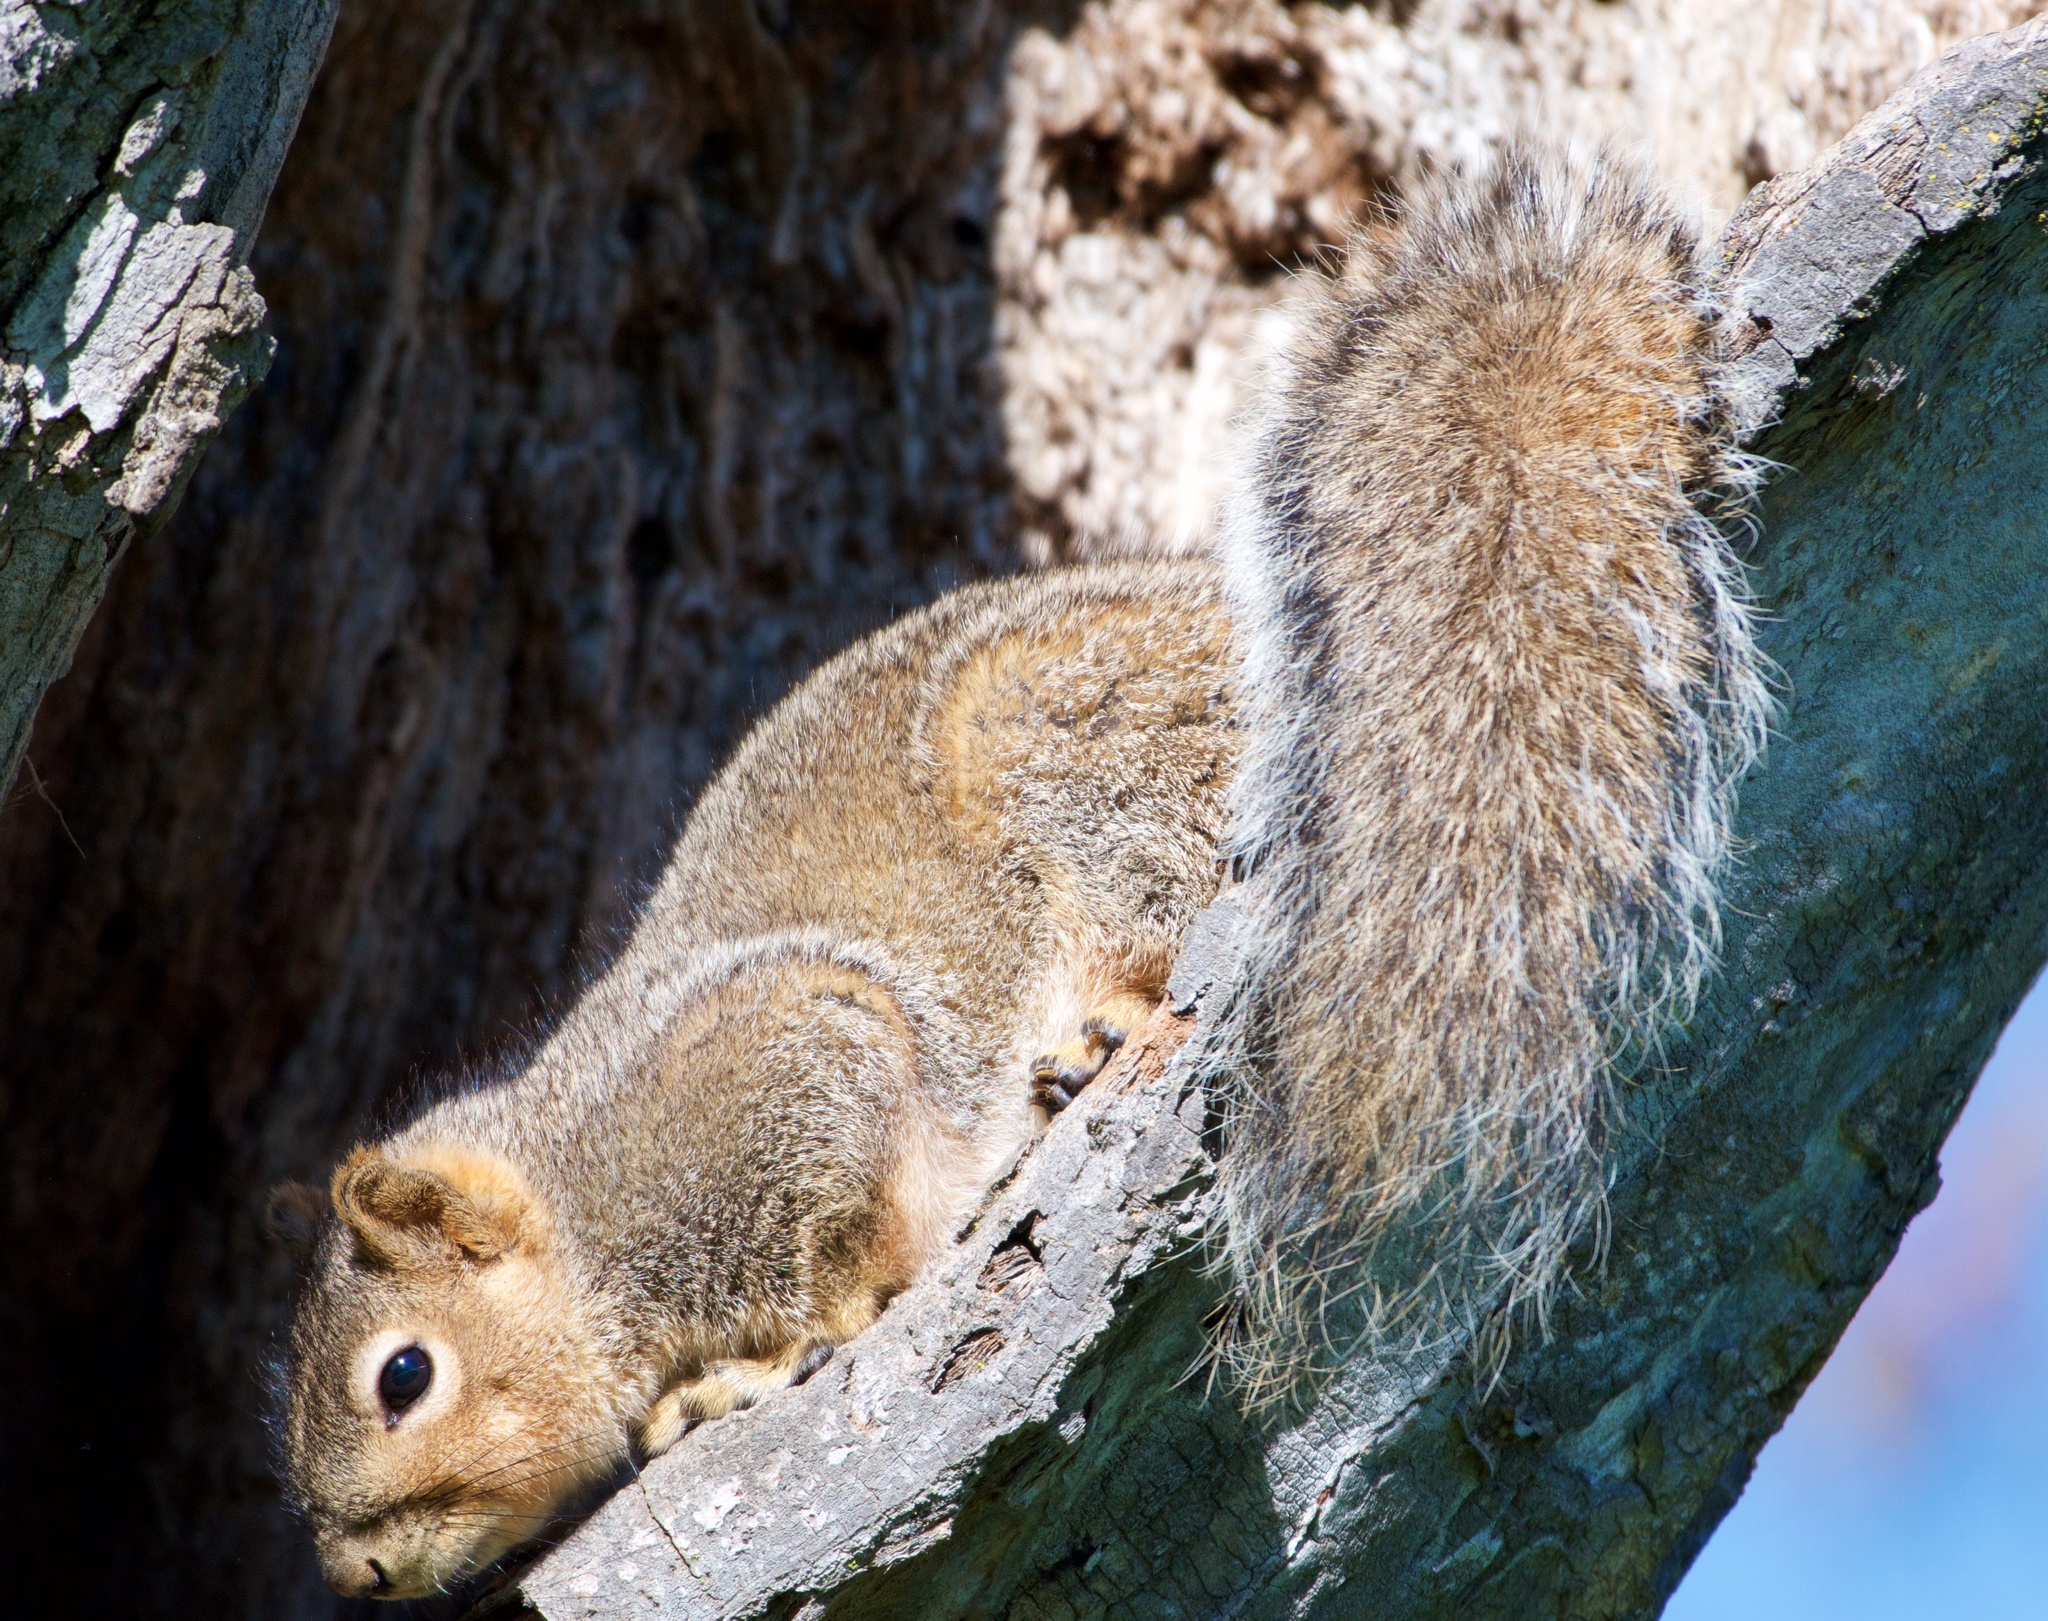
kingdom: Animalia
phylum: Chordata
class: Mammalia
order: Rodentia
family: Sciuridae
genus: Sciurus
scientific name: Sciurus niger
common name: Fox squirrel
